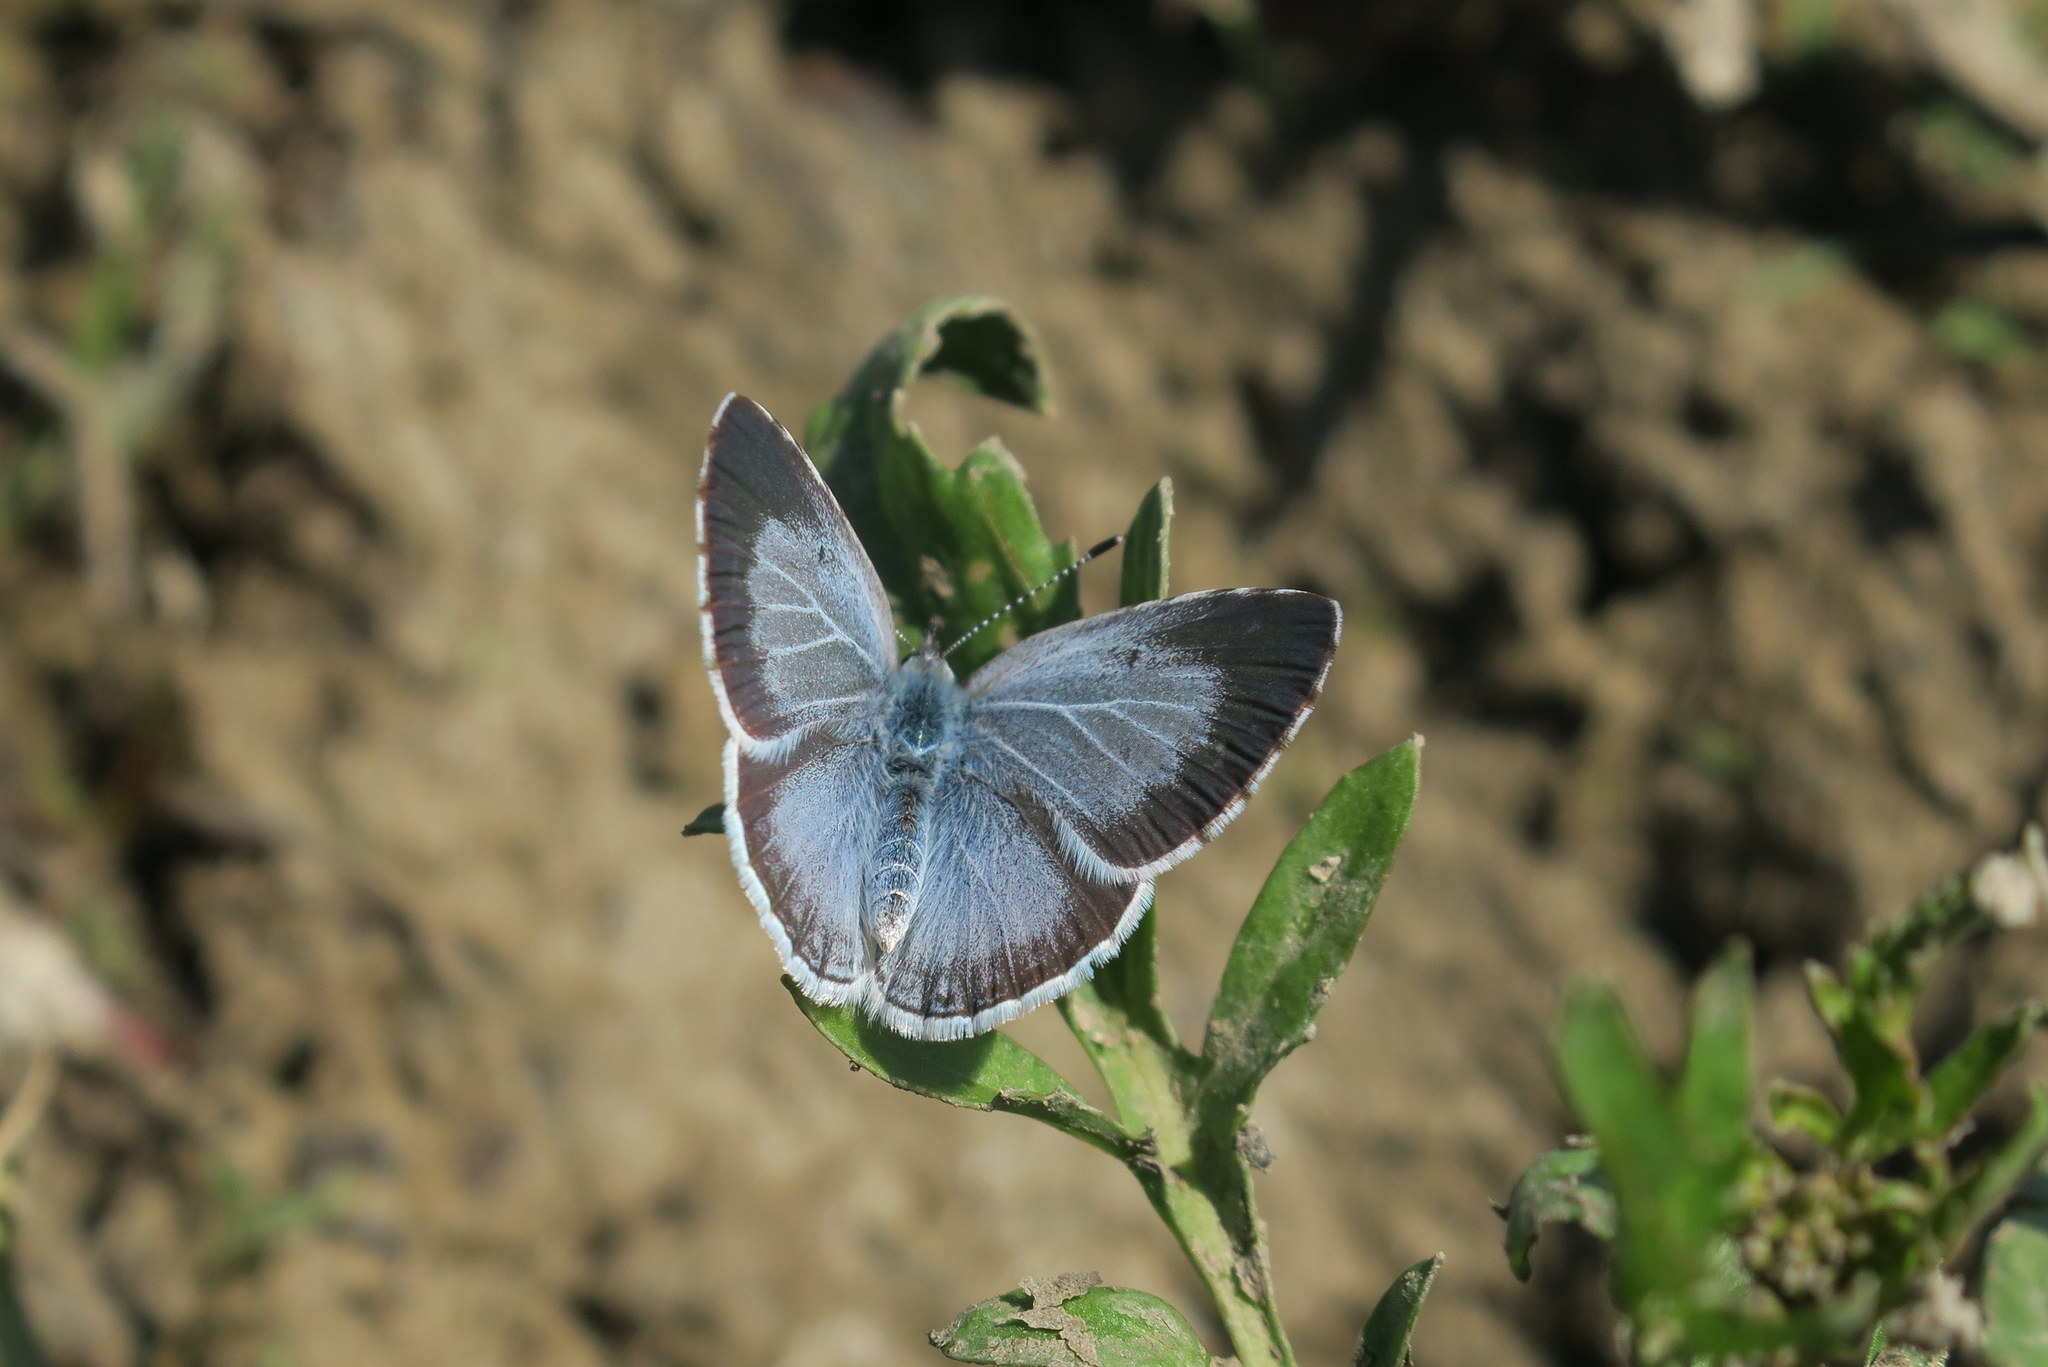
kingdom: Animalia
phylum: Arthropoda
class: Insecta
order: Lepidoptera
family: Lycaenidae
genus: Celastrina
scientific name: Celastrina argiolus
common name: Holly blue
